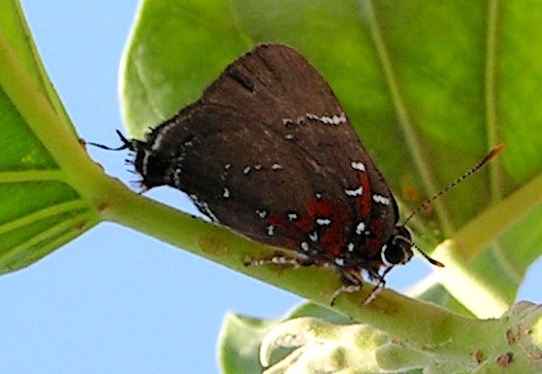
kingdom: Animalia
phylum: Arthropoda
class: Insecta
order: Lepidoptera
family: Lycaenidae
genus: Atlides
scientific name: Atlides Brangas neora
